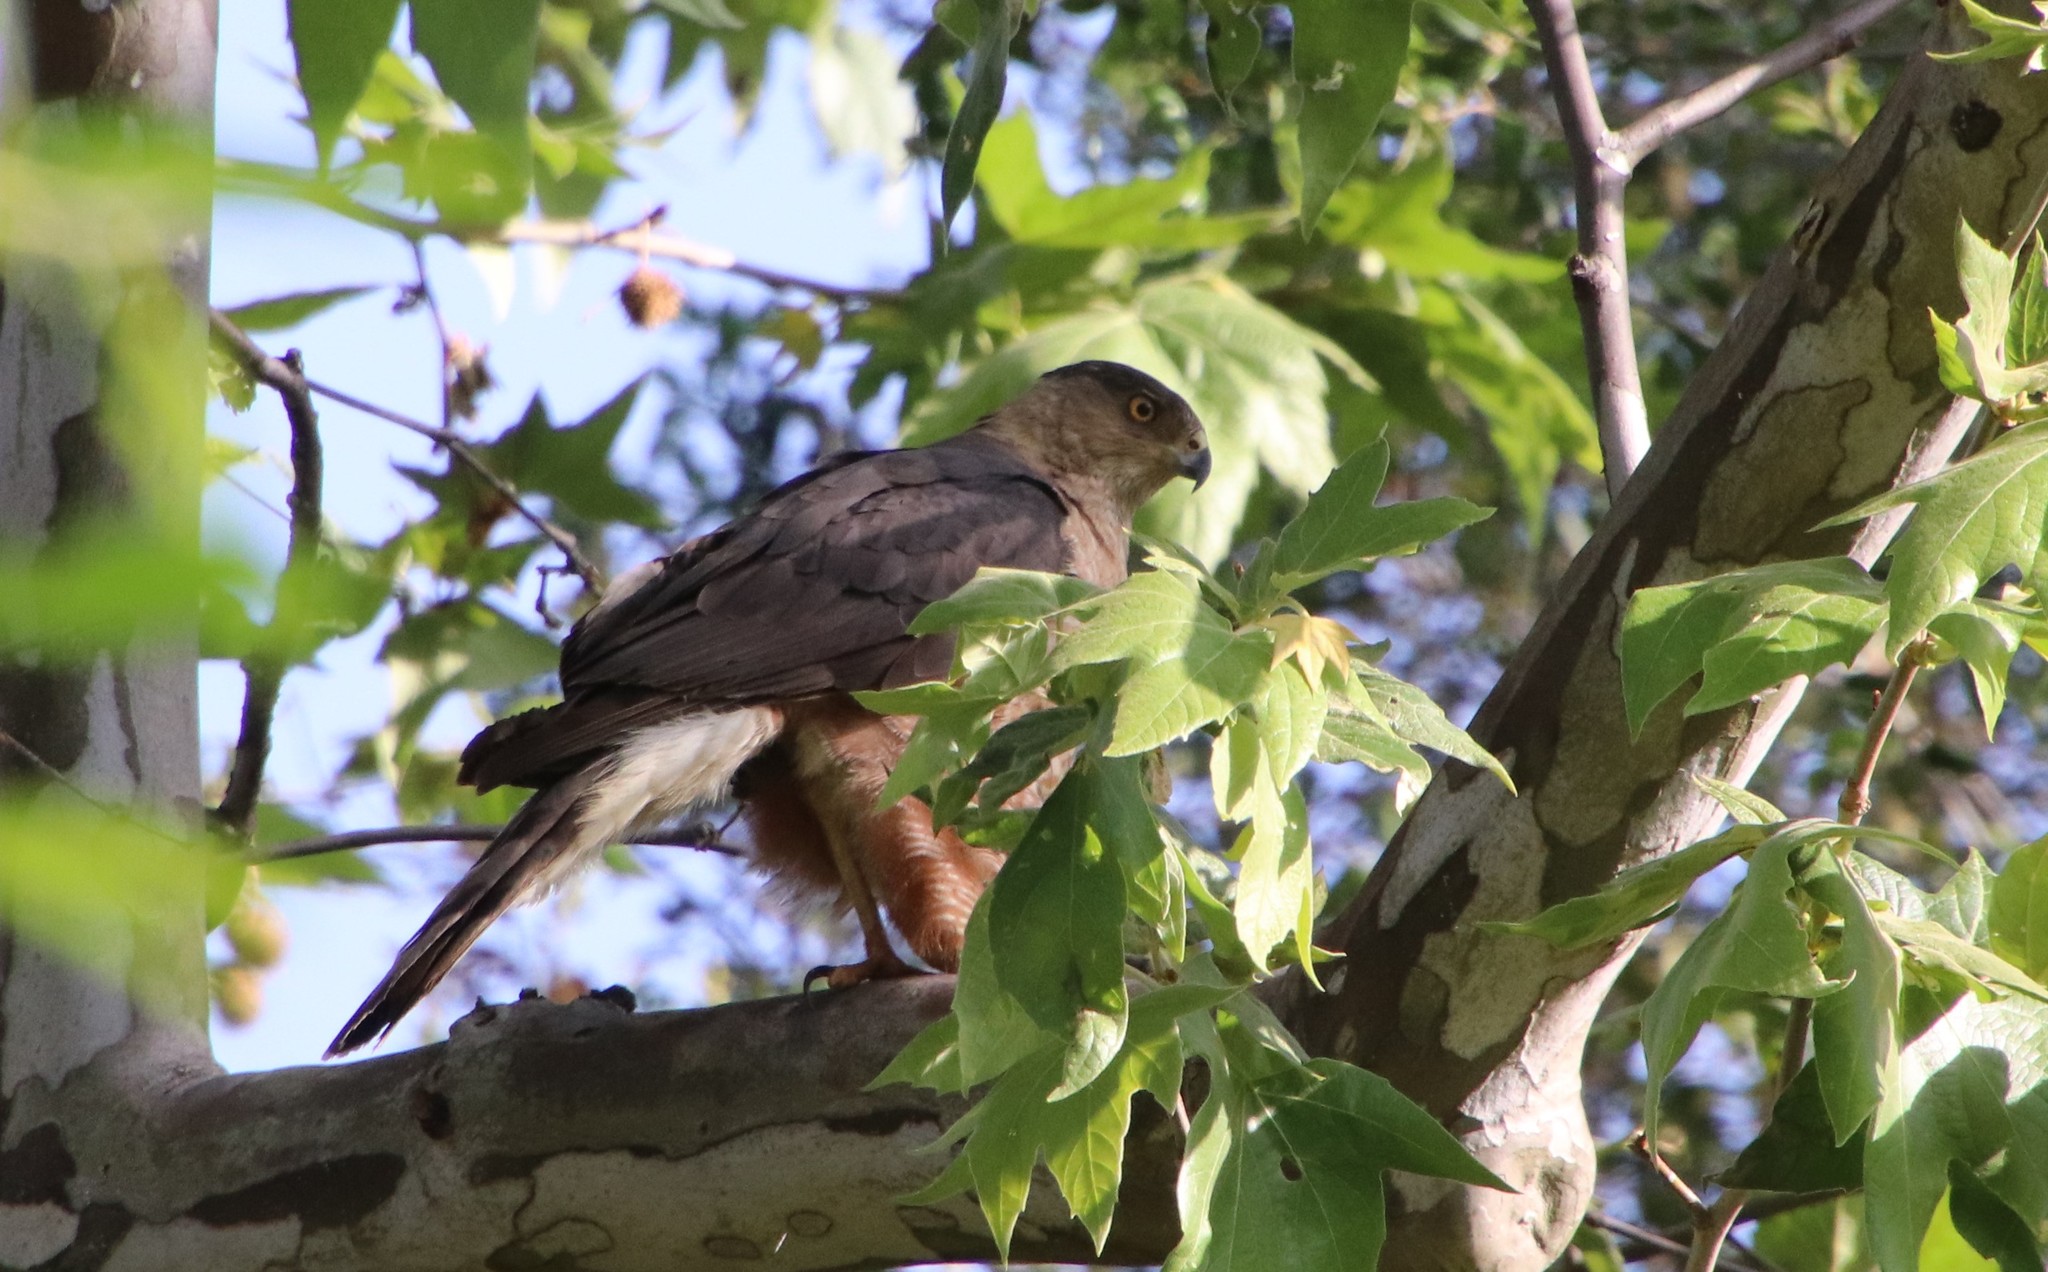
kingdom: Animalia
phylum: Chordata
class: Aves
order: Accipitriformes
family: Accipitridae
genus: Accipiter
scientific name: Accipiter cooperii
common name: Cooper's hawk
